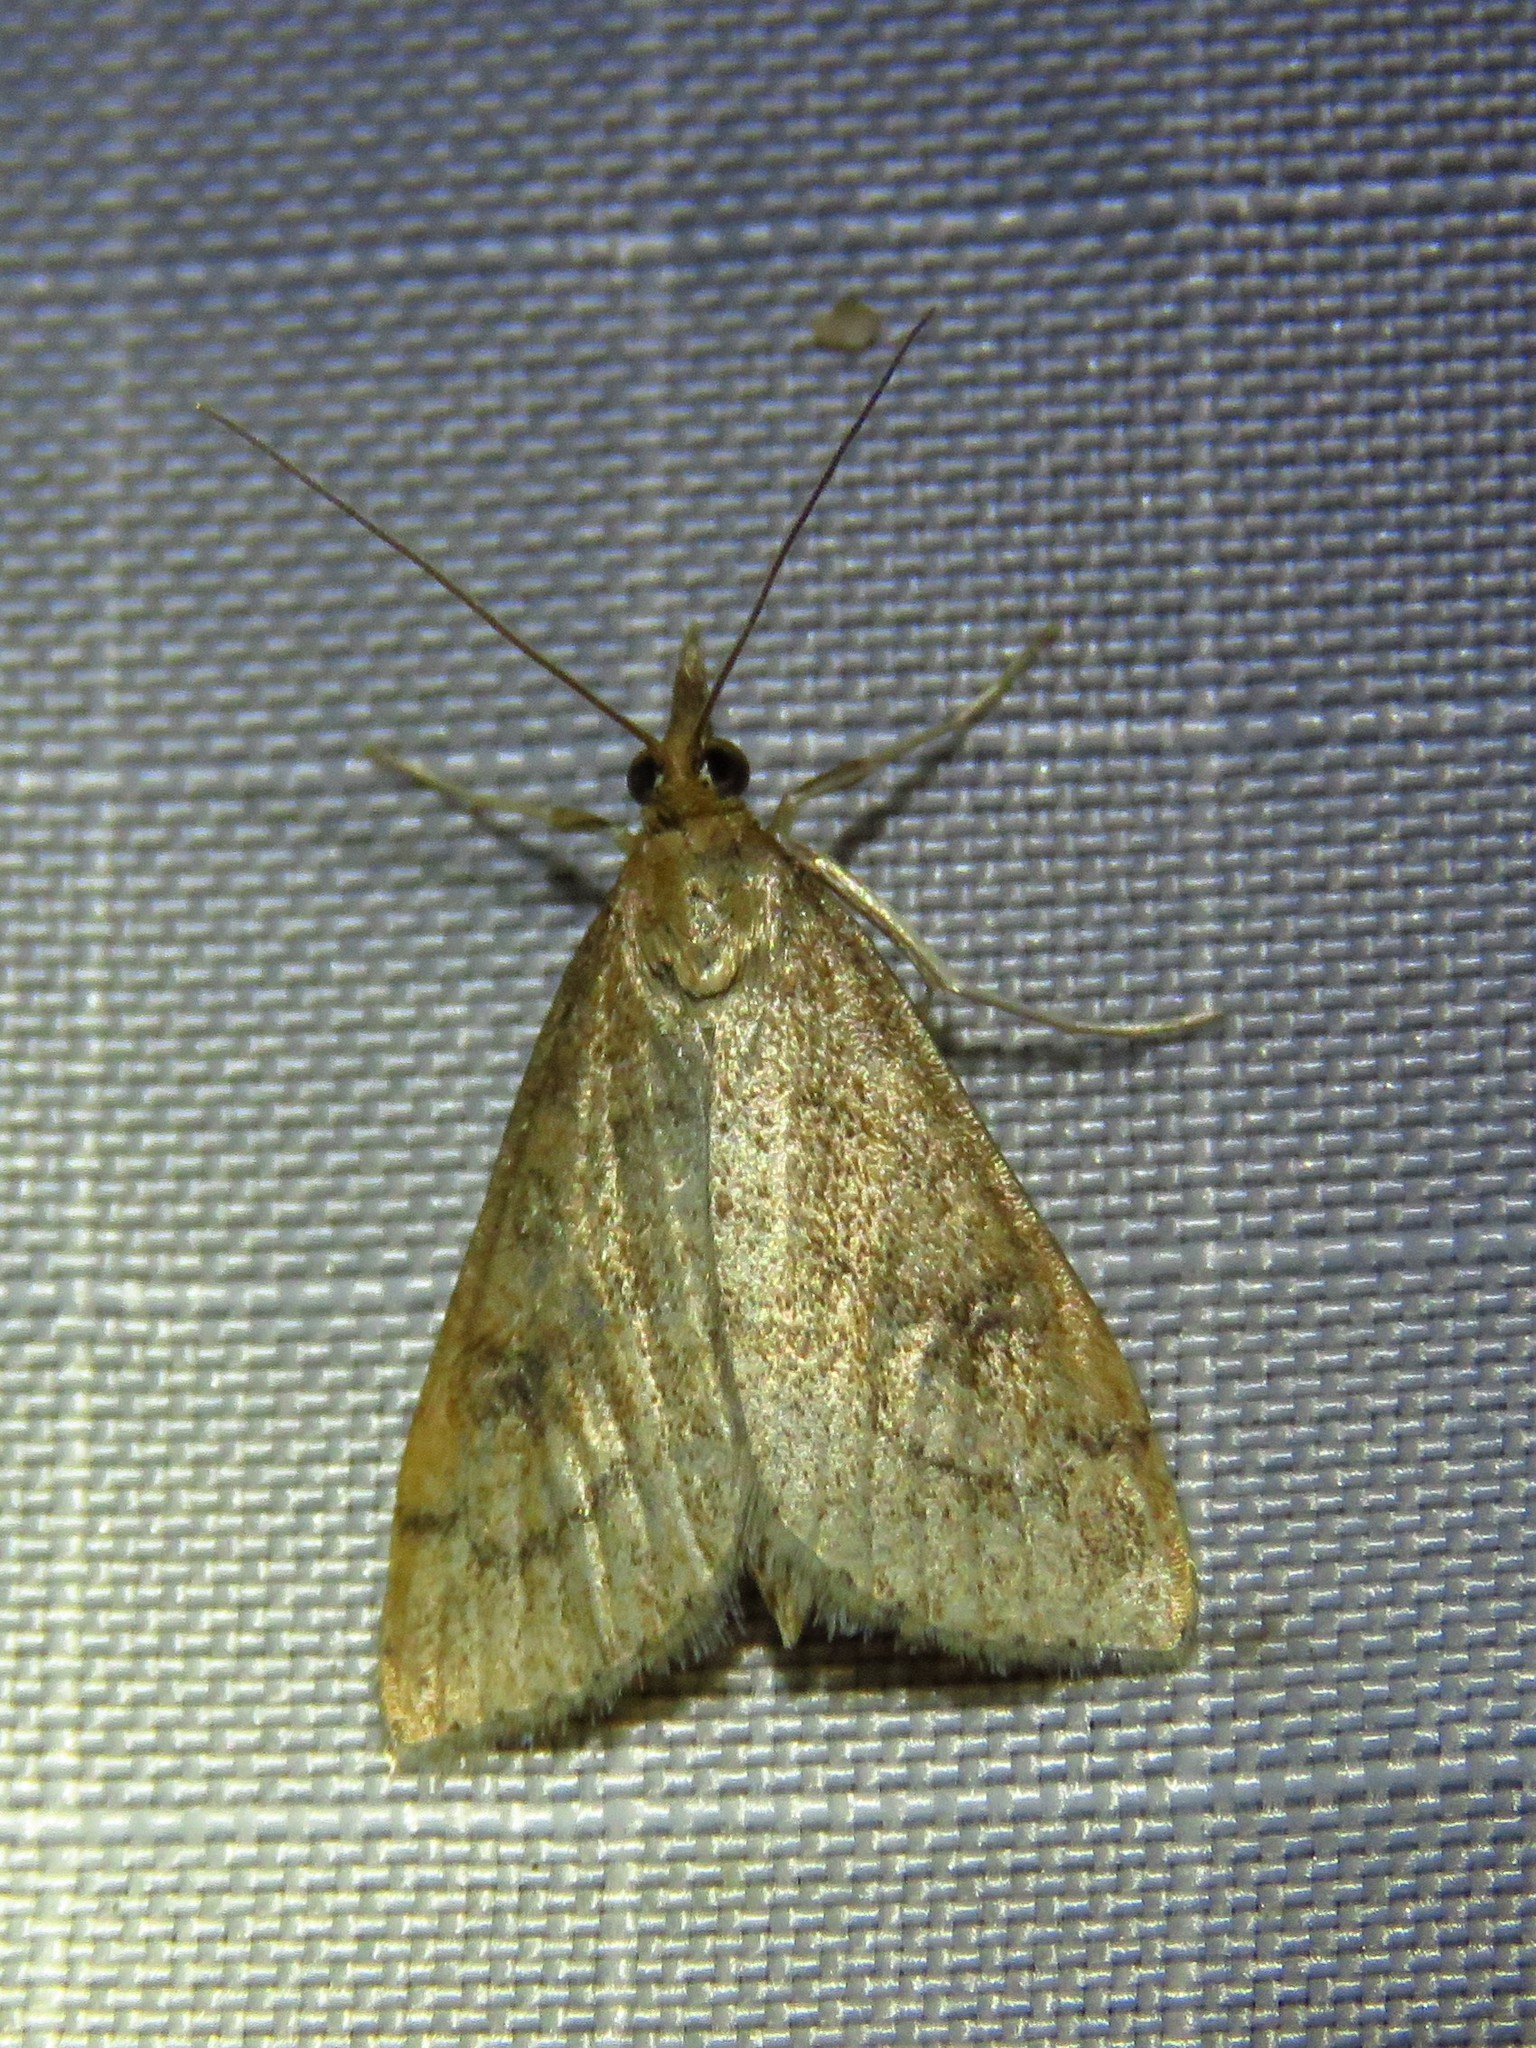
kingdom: Animalia
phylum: Arthropoda
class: Insecta
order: Lepidoptera
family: Crambidae
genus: Udea
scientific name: Udea rubigalis
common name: Celery leaftier moth
